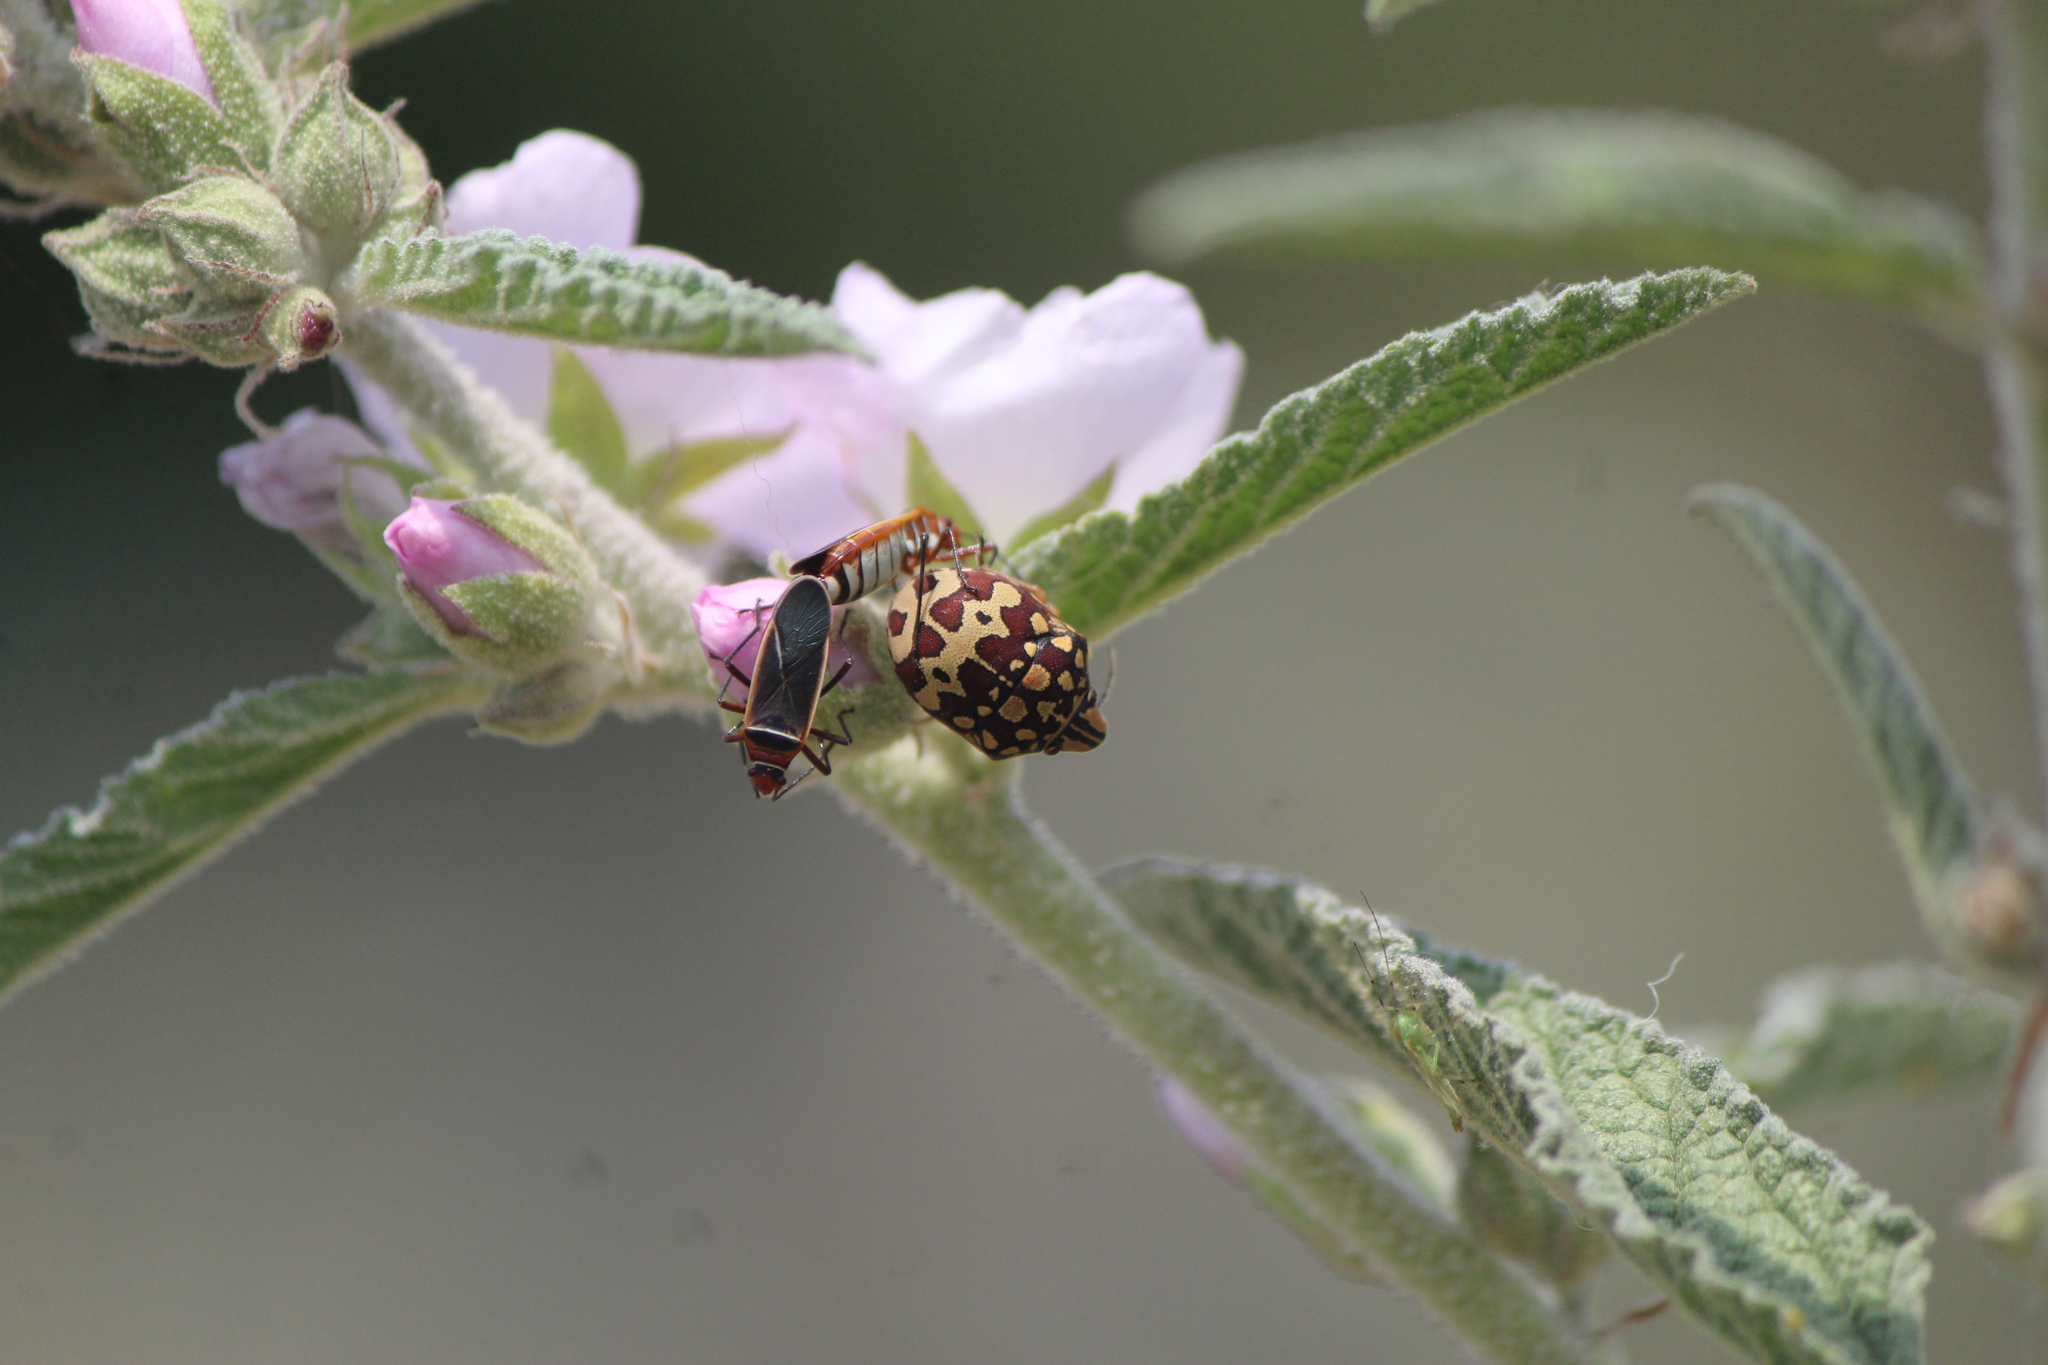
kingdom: Animalia
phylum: Arthropoda
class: Insecta
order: Hemiptera
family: Scutelleridae
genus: Orsilochides
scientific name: Orsilochides
